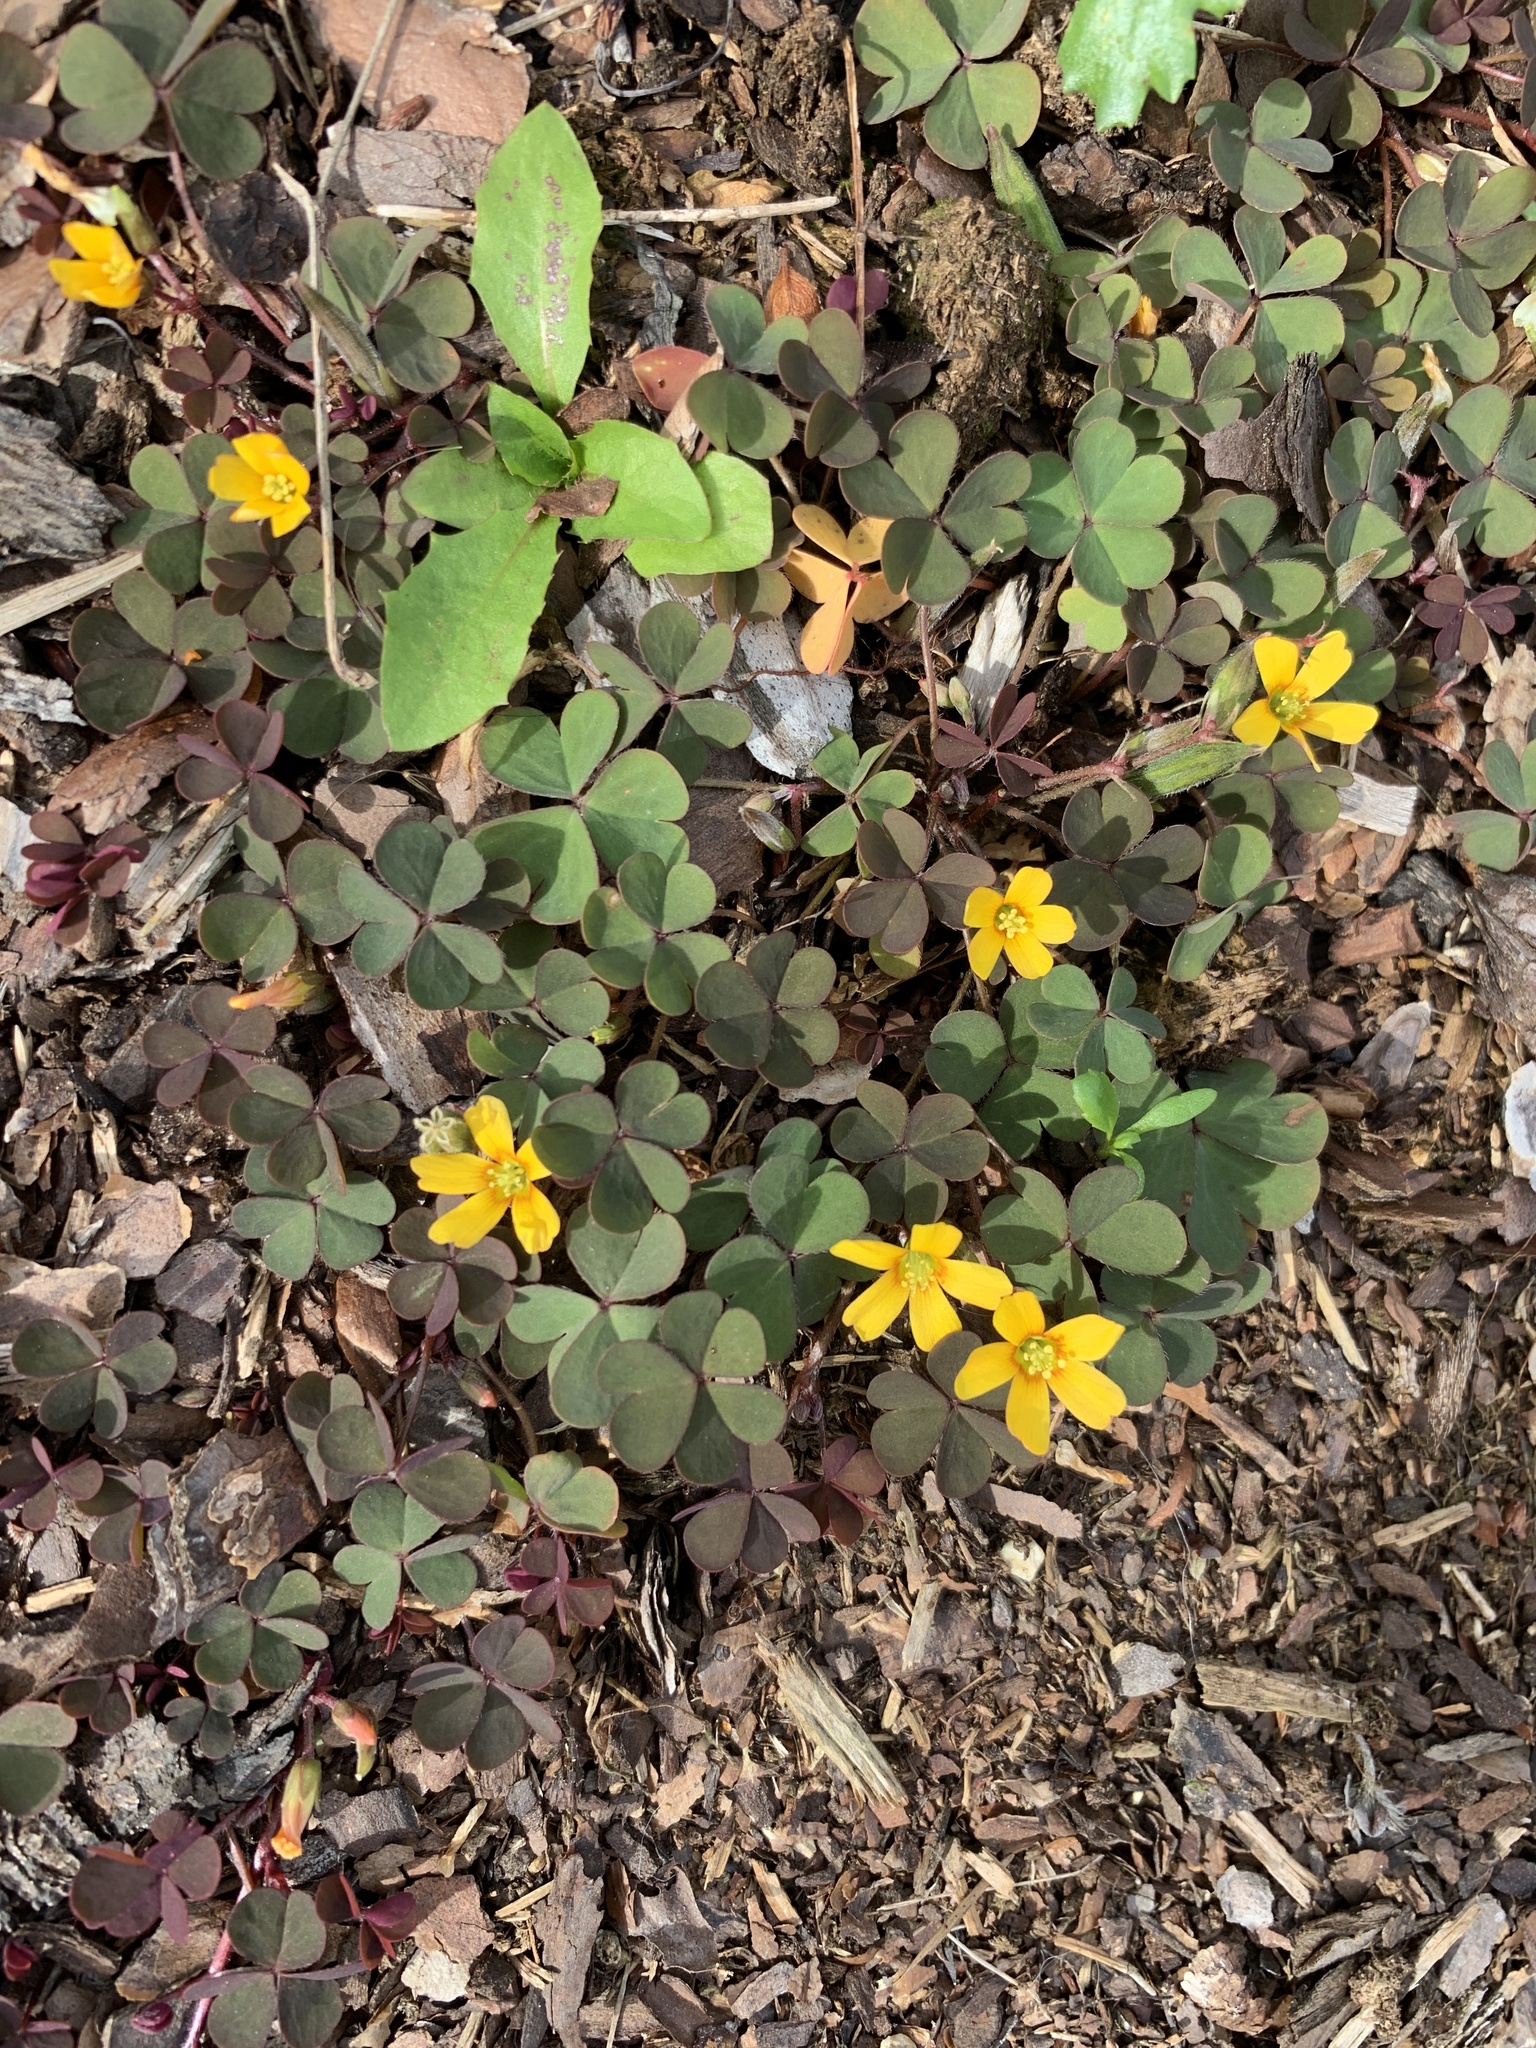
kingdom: Plantae
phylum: Tracheophyta
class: Magnoliopsida
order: Oxalidales
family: Oxalidaceae
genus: Oxalis
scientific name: Oxalis corniculata
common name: Procumbent yellow-sorrel
